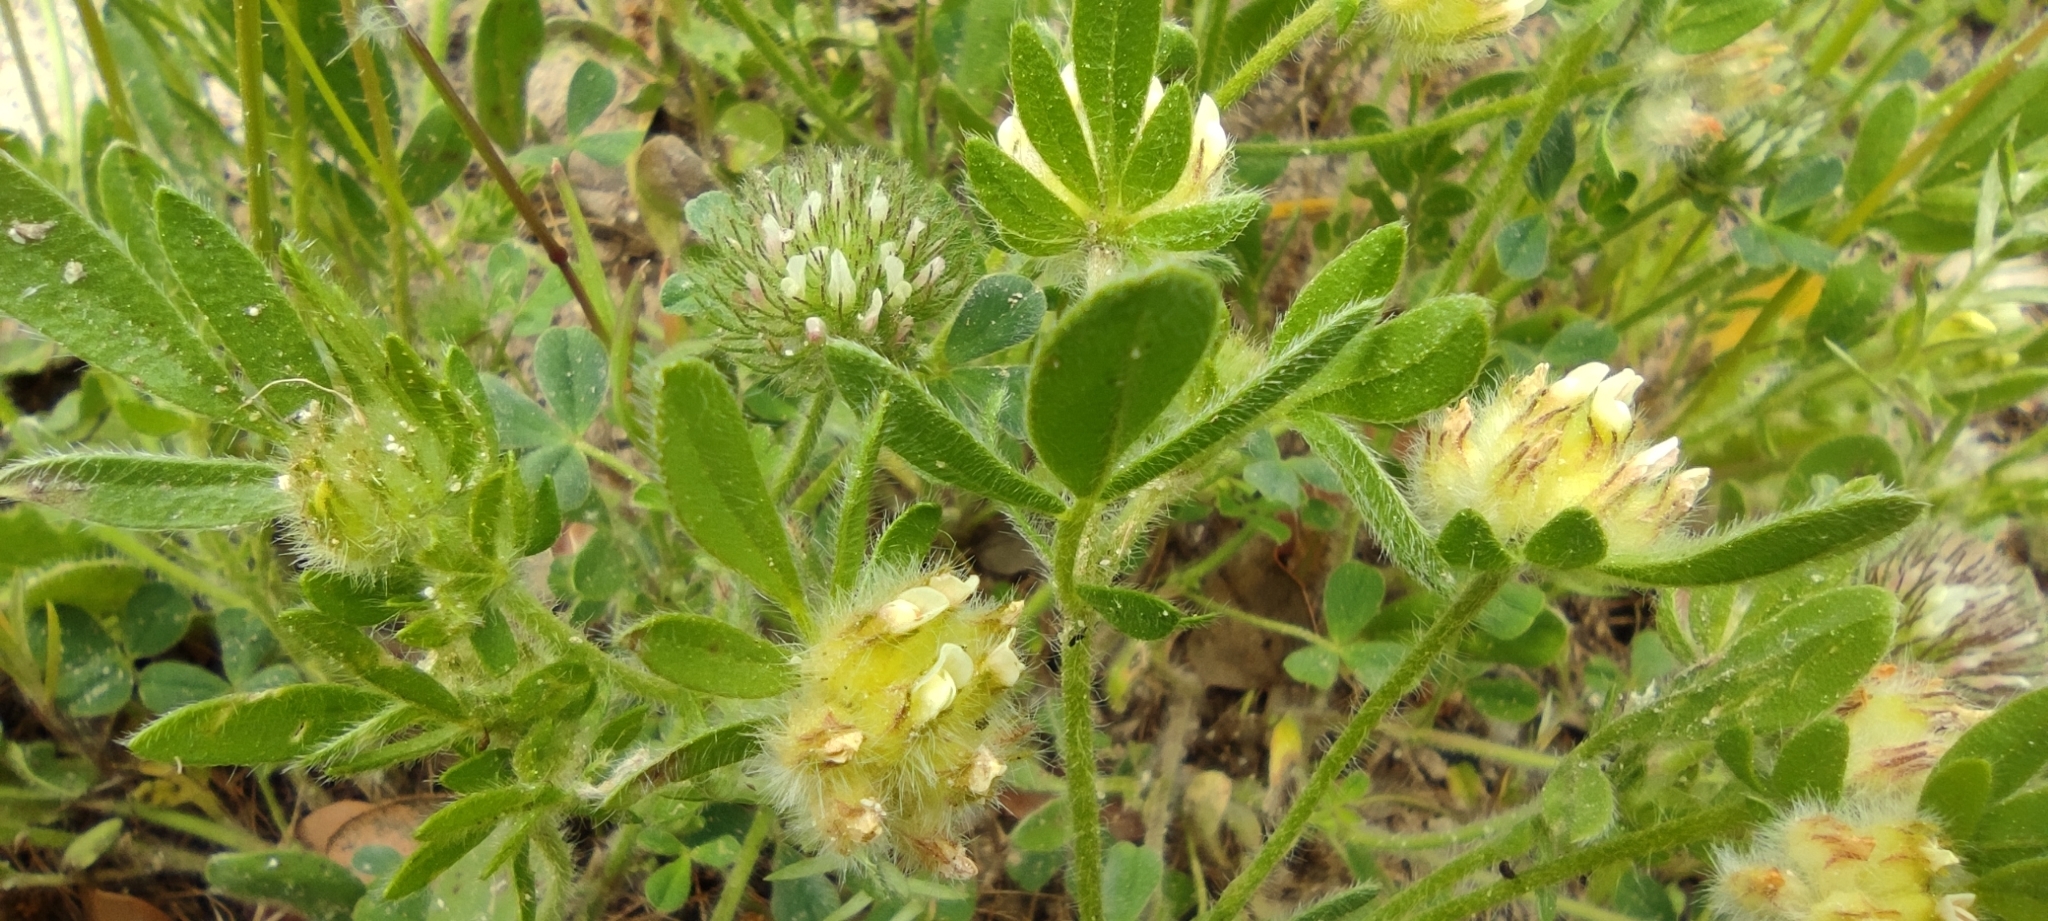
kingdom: Plantae
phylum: Tracheophyta
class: Magnoliopsida
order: Fabales
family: Fabaceae
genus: Anthyllis
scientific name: Anthyllis cornicina
